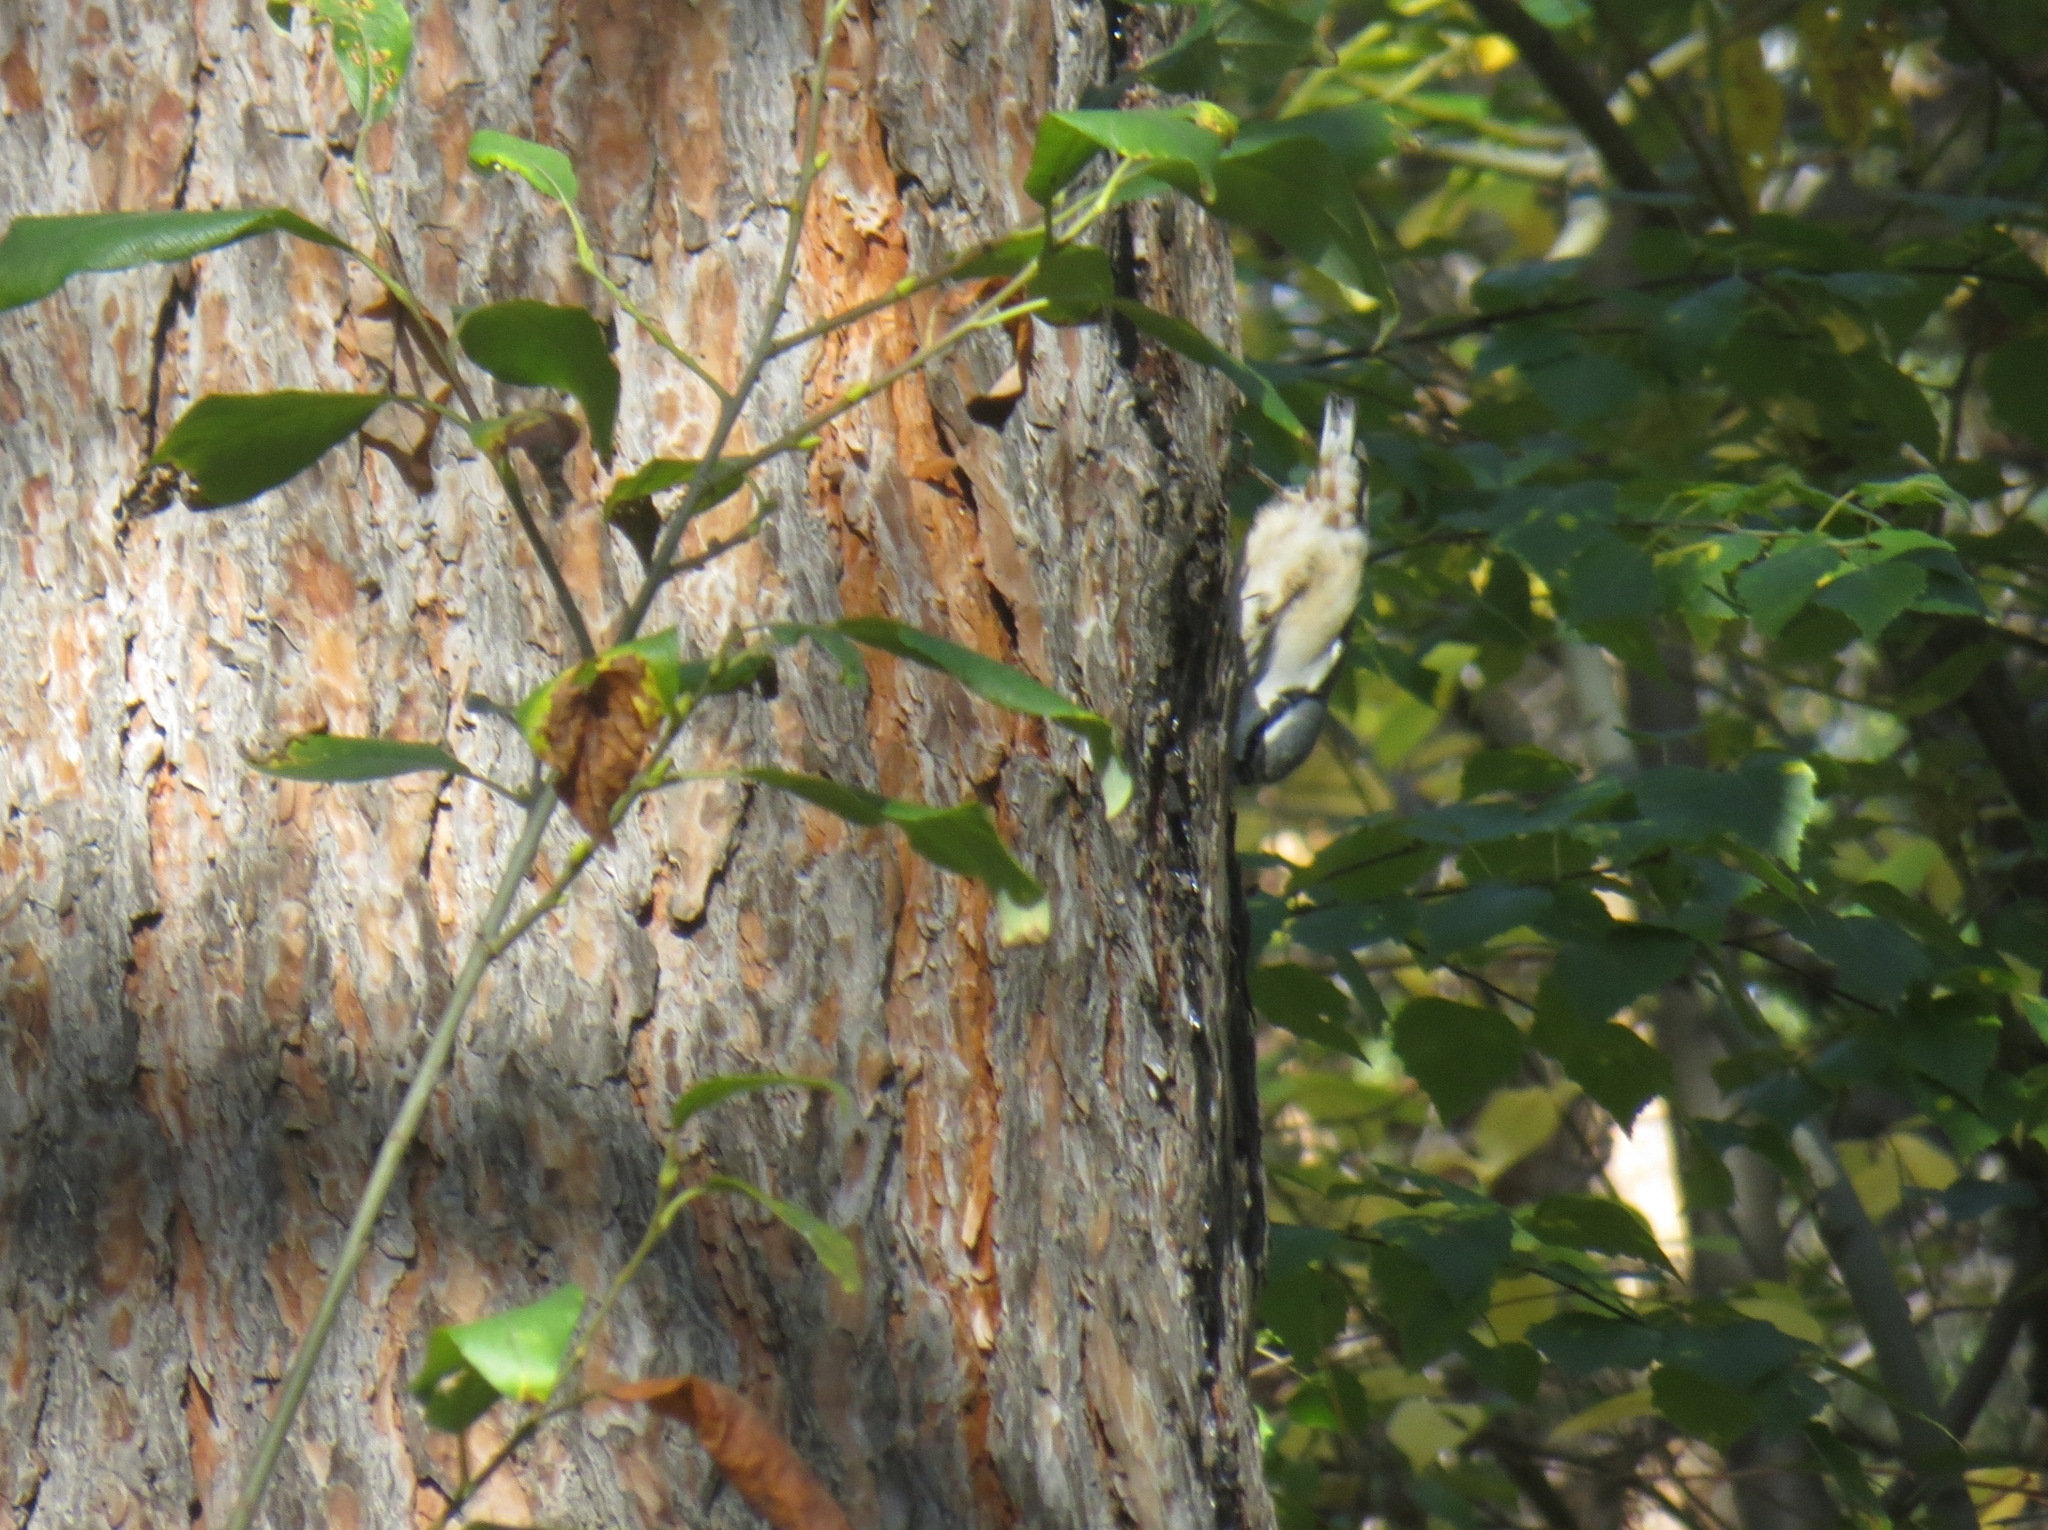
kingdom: Animalia
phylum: Chordata
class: Aves
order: Passeriformes
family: Sittidae
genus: Sitta
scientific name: Sitta europaea
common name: Eurasian nuthatch
